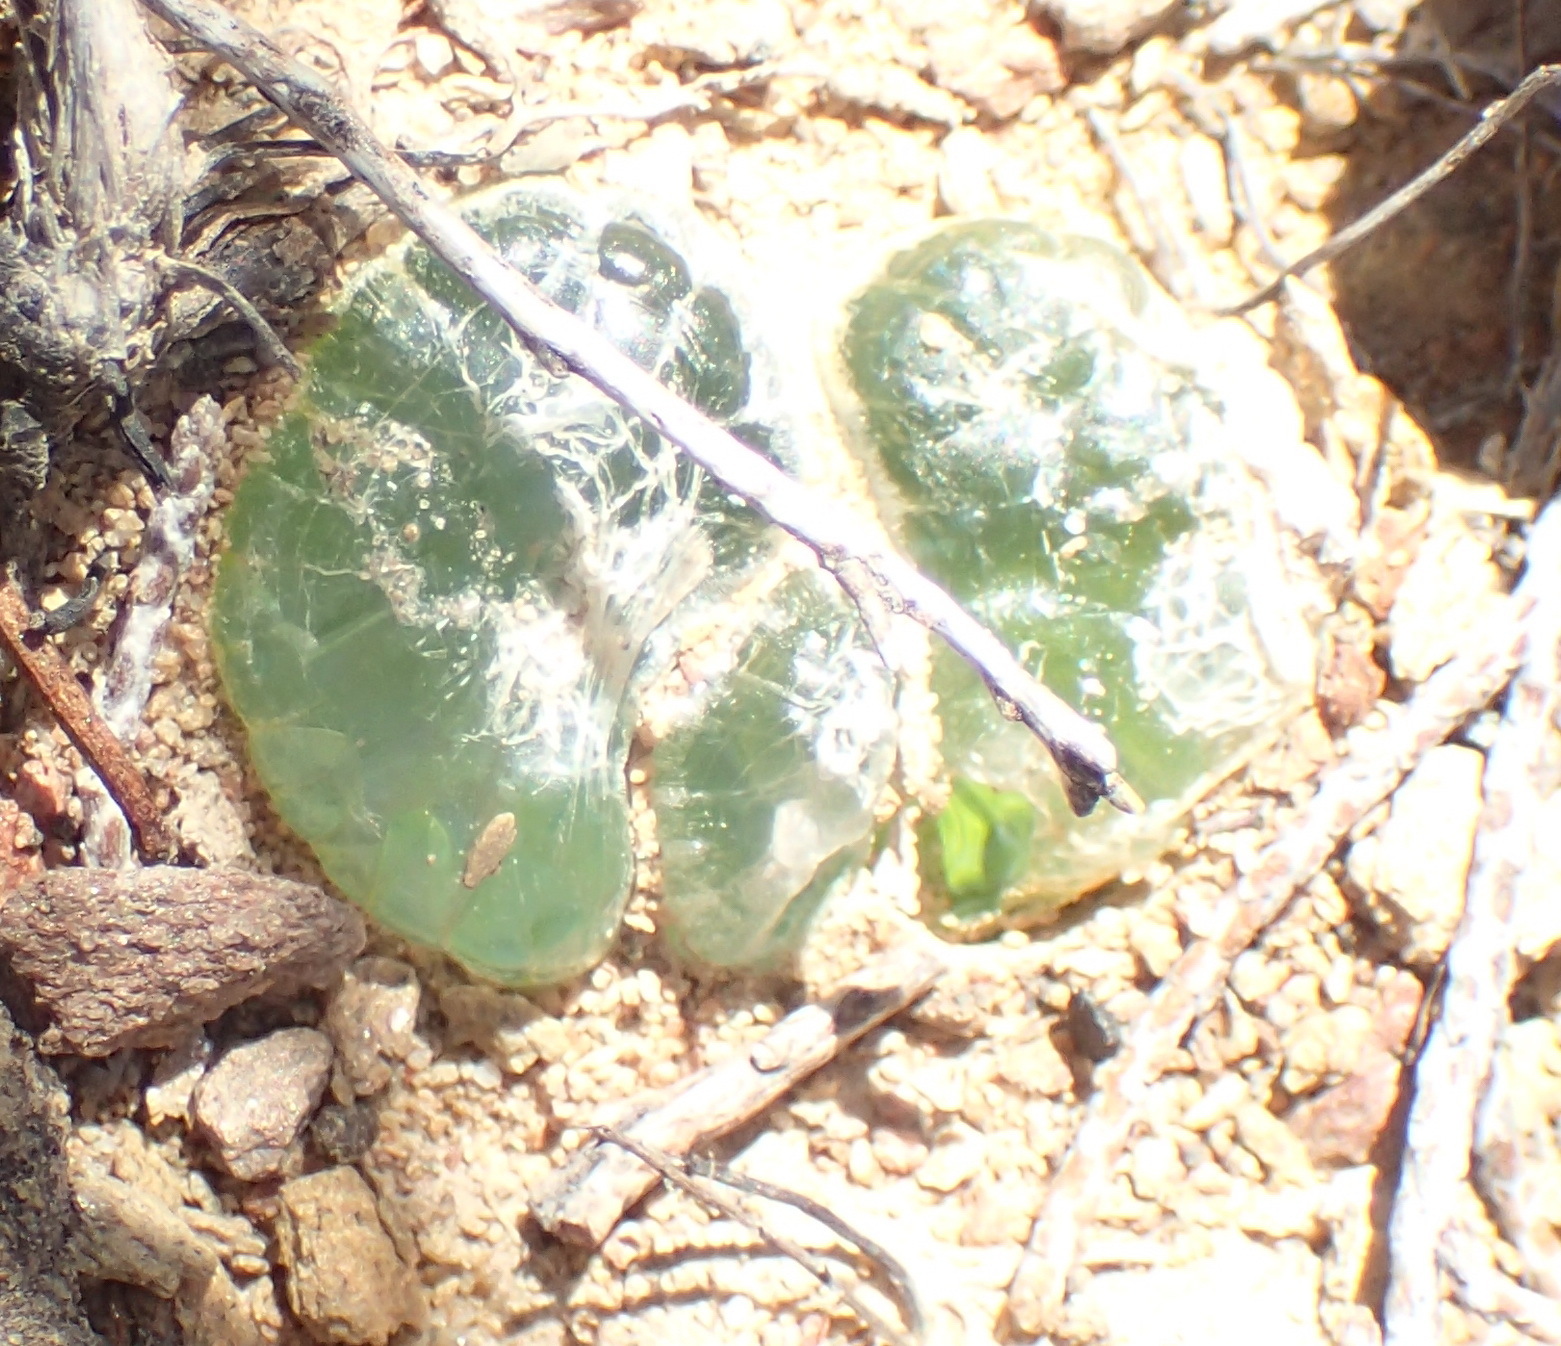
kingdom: Plantae
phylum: Tracheophyta
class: Liliopsida
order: Asparagales
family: Asphodelaceae
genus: Bulbine
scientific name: Bulbine mesembryanthoides
